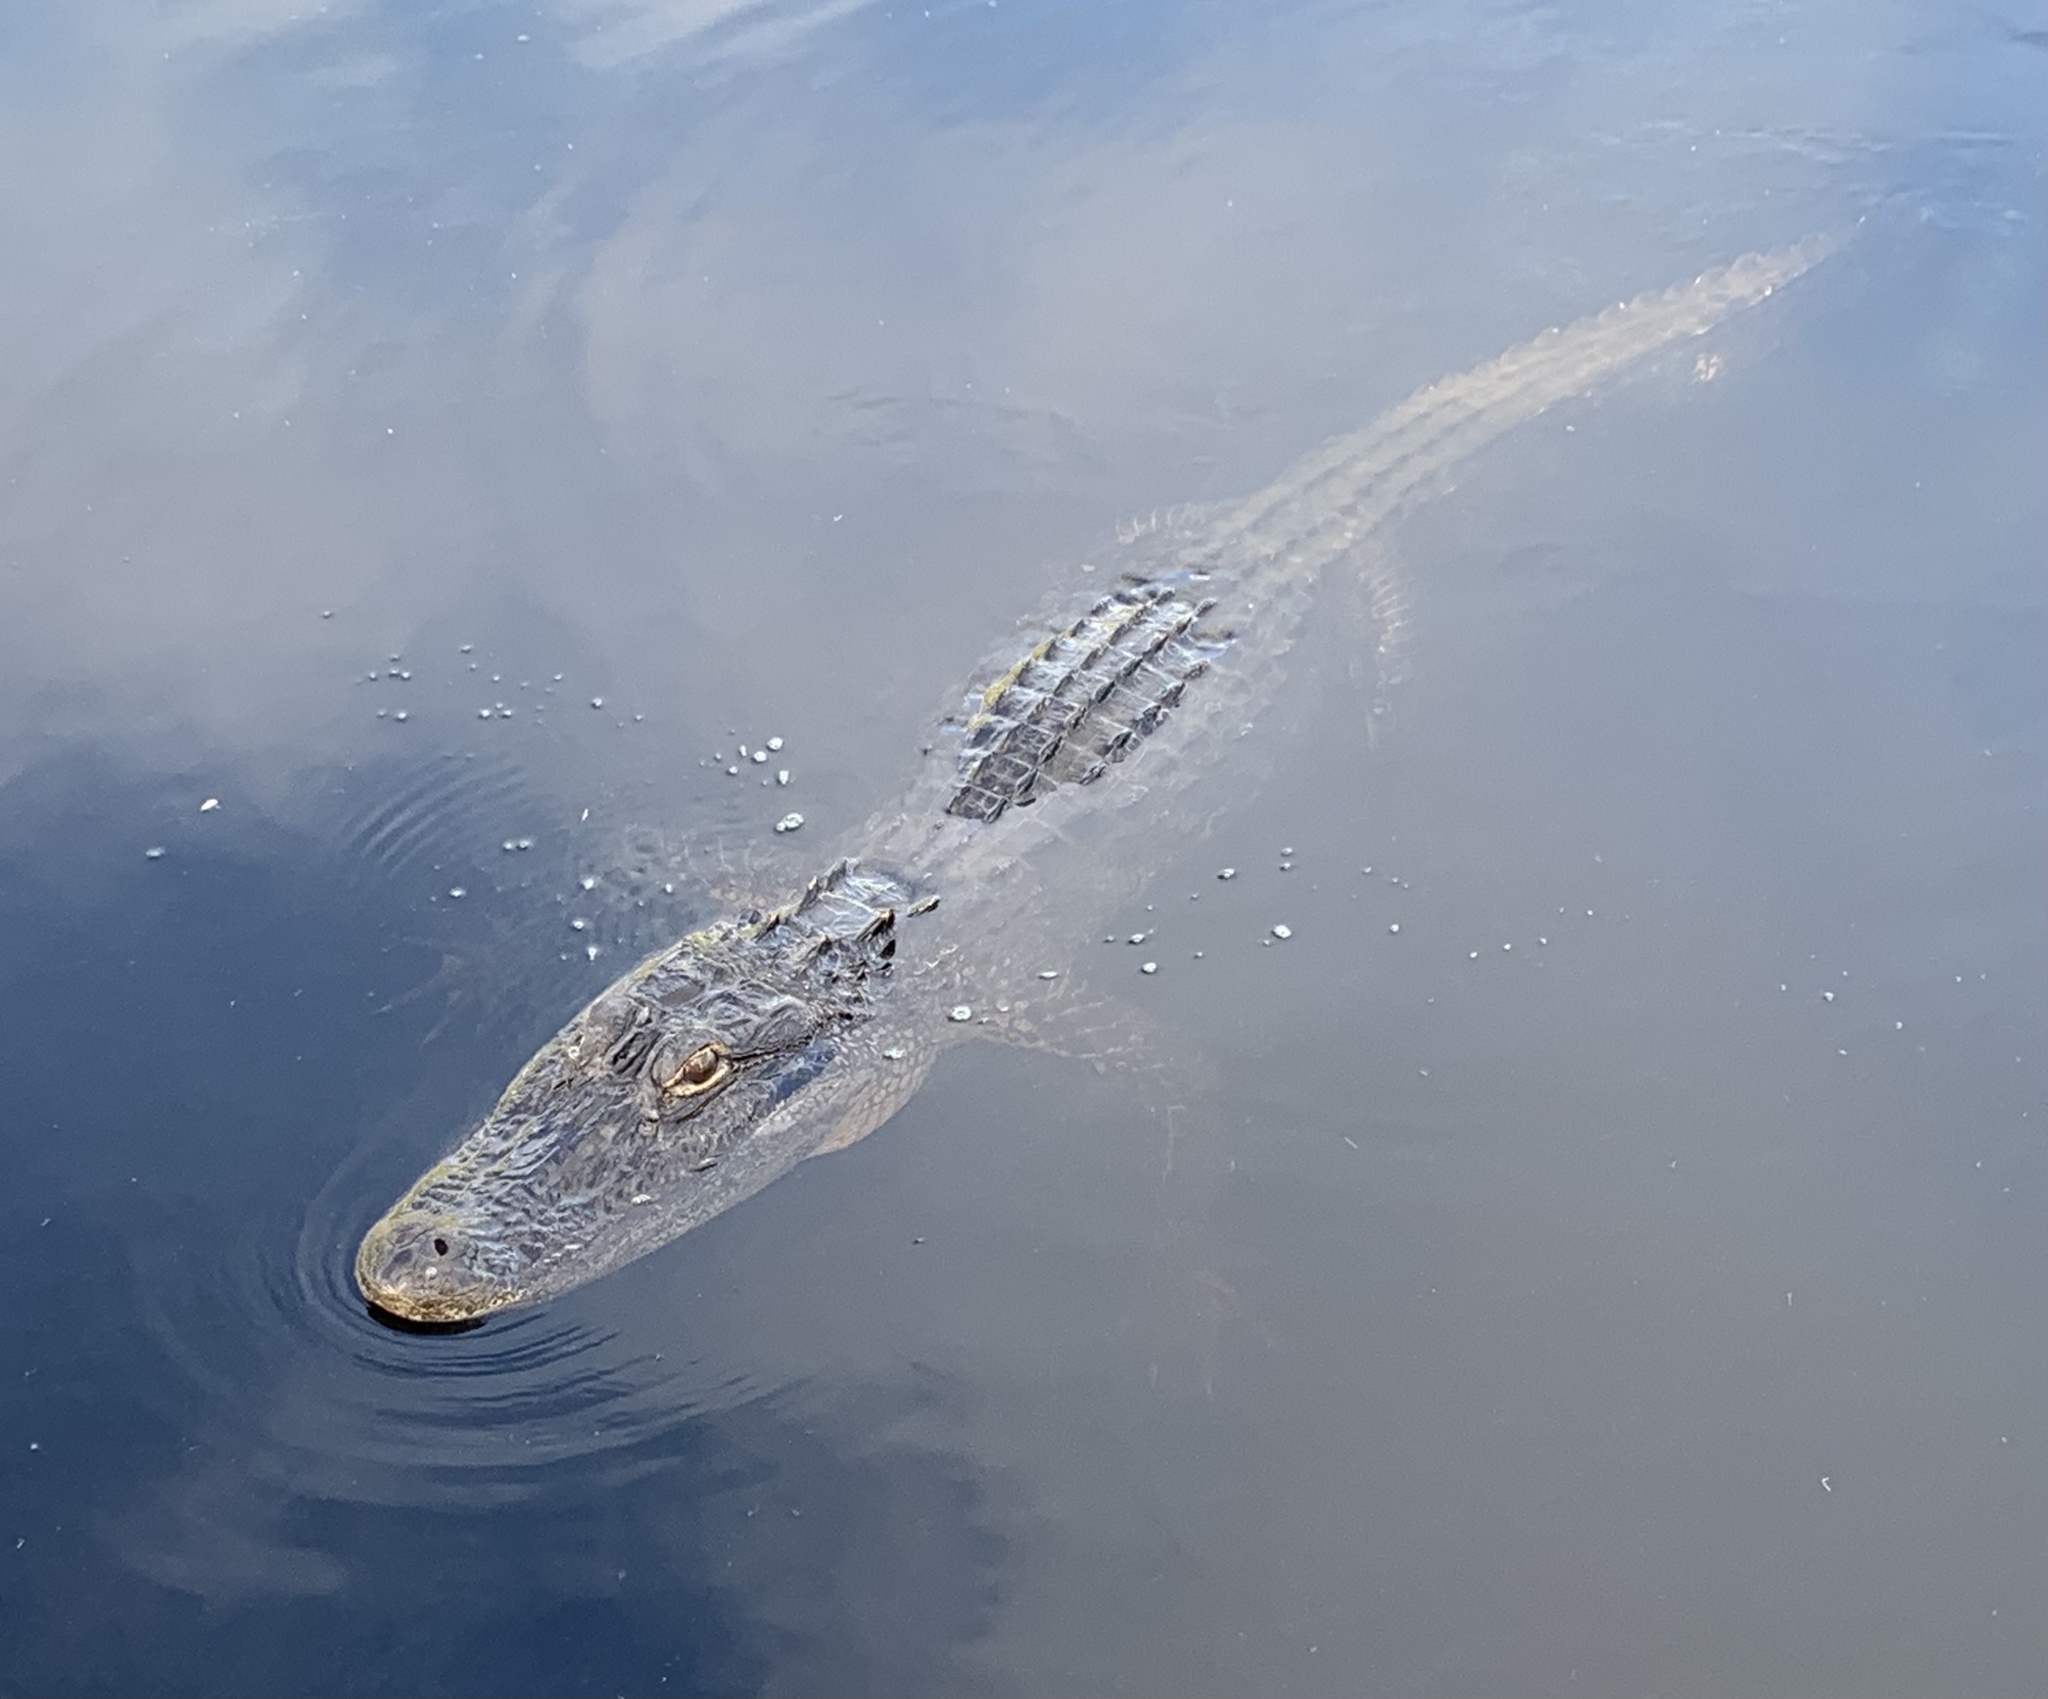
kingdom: Animalia
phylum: Chordata
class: Crocodylia
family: Alligatoridae
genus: Alligator
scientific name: Alligator mississippiensis
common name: American alligator
